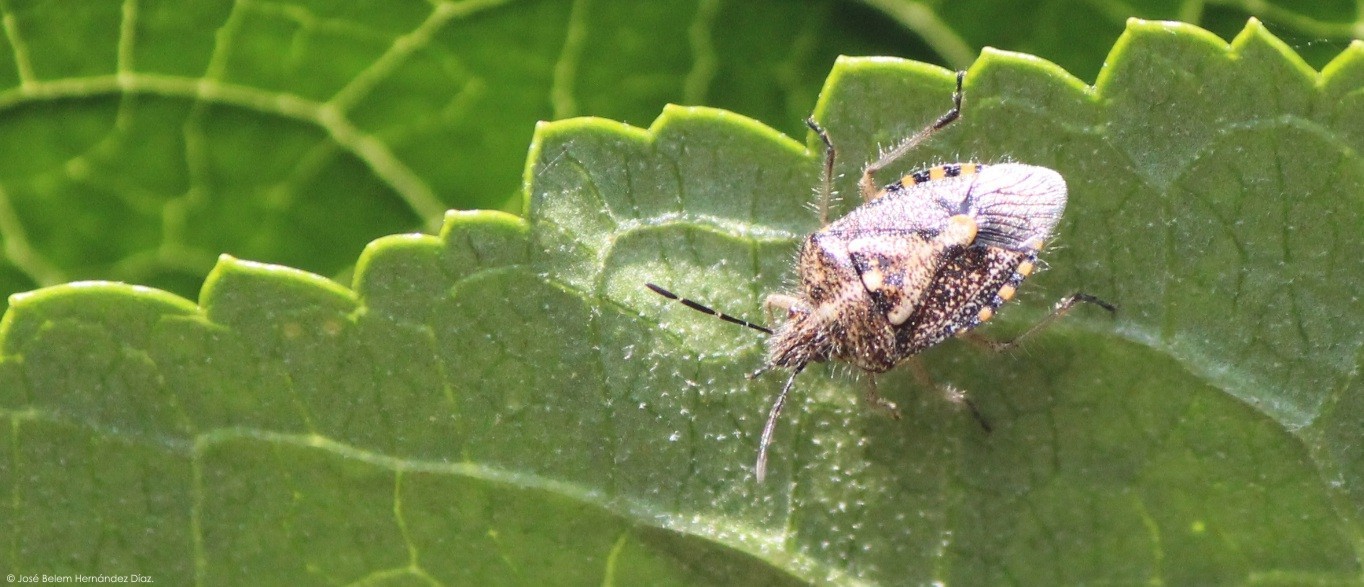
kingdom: Animalia
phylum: Arthropoda
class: Insecta
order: Hemiptera
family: Pentatomidae
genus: Agonoscelis
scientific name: Agonoscelis puberula
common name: African cluster bug
